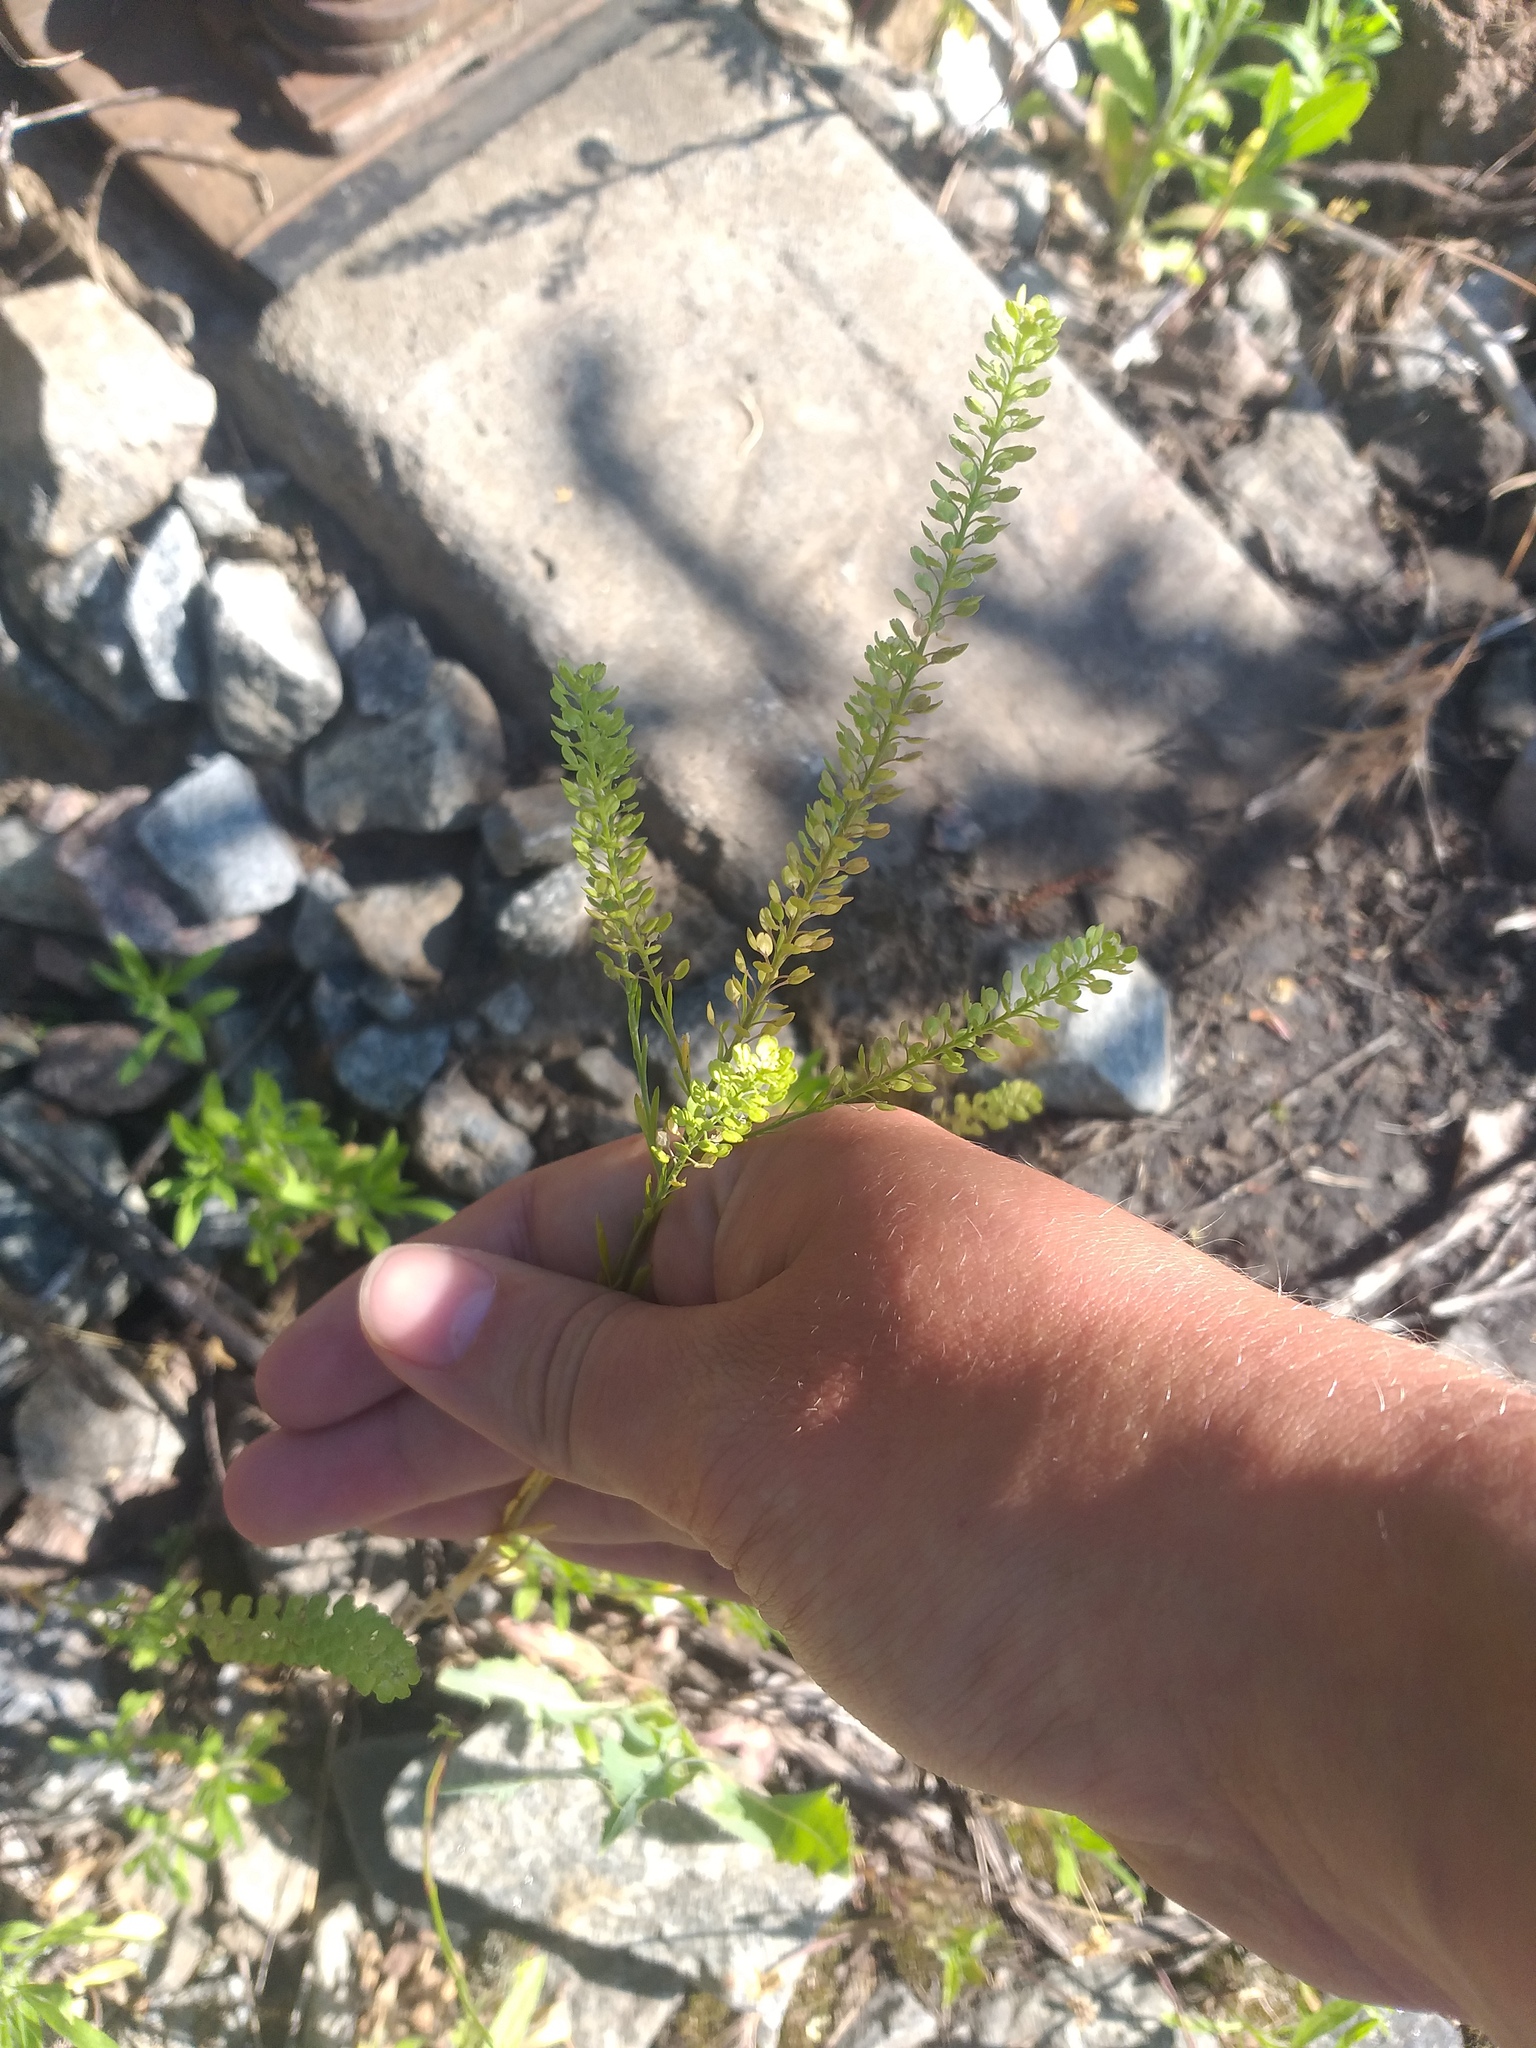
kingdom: Plantae
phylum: Tracheophyta
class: Magnoliopsida
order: Brassicales
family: Brassicaceae
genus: Lepidium
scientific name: Lepidium densiflorum
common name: Miner's pepperwort
